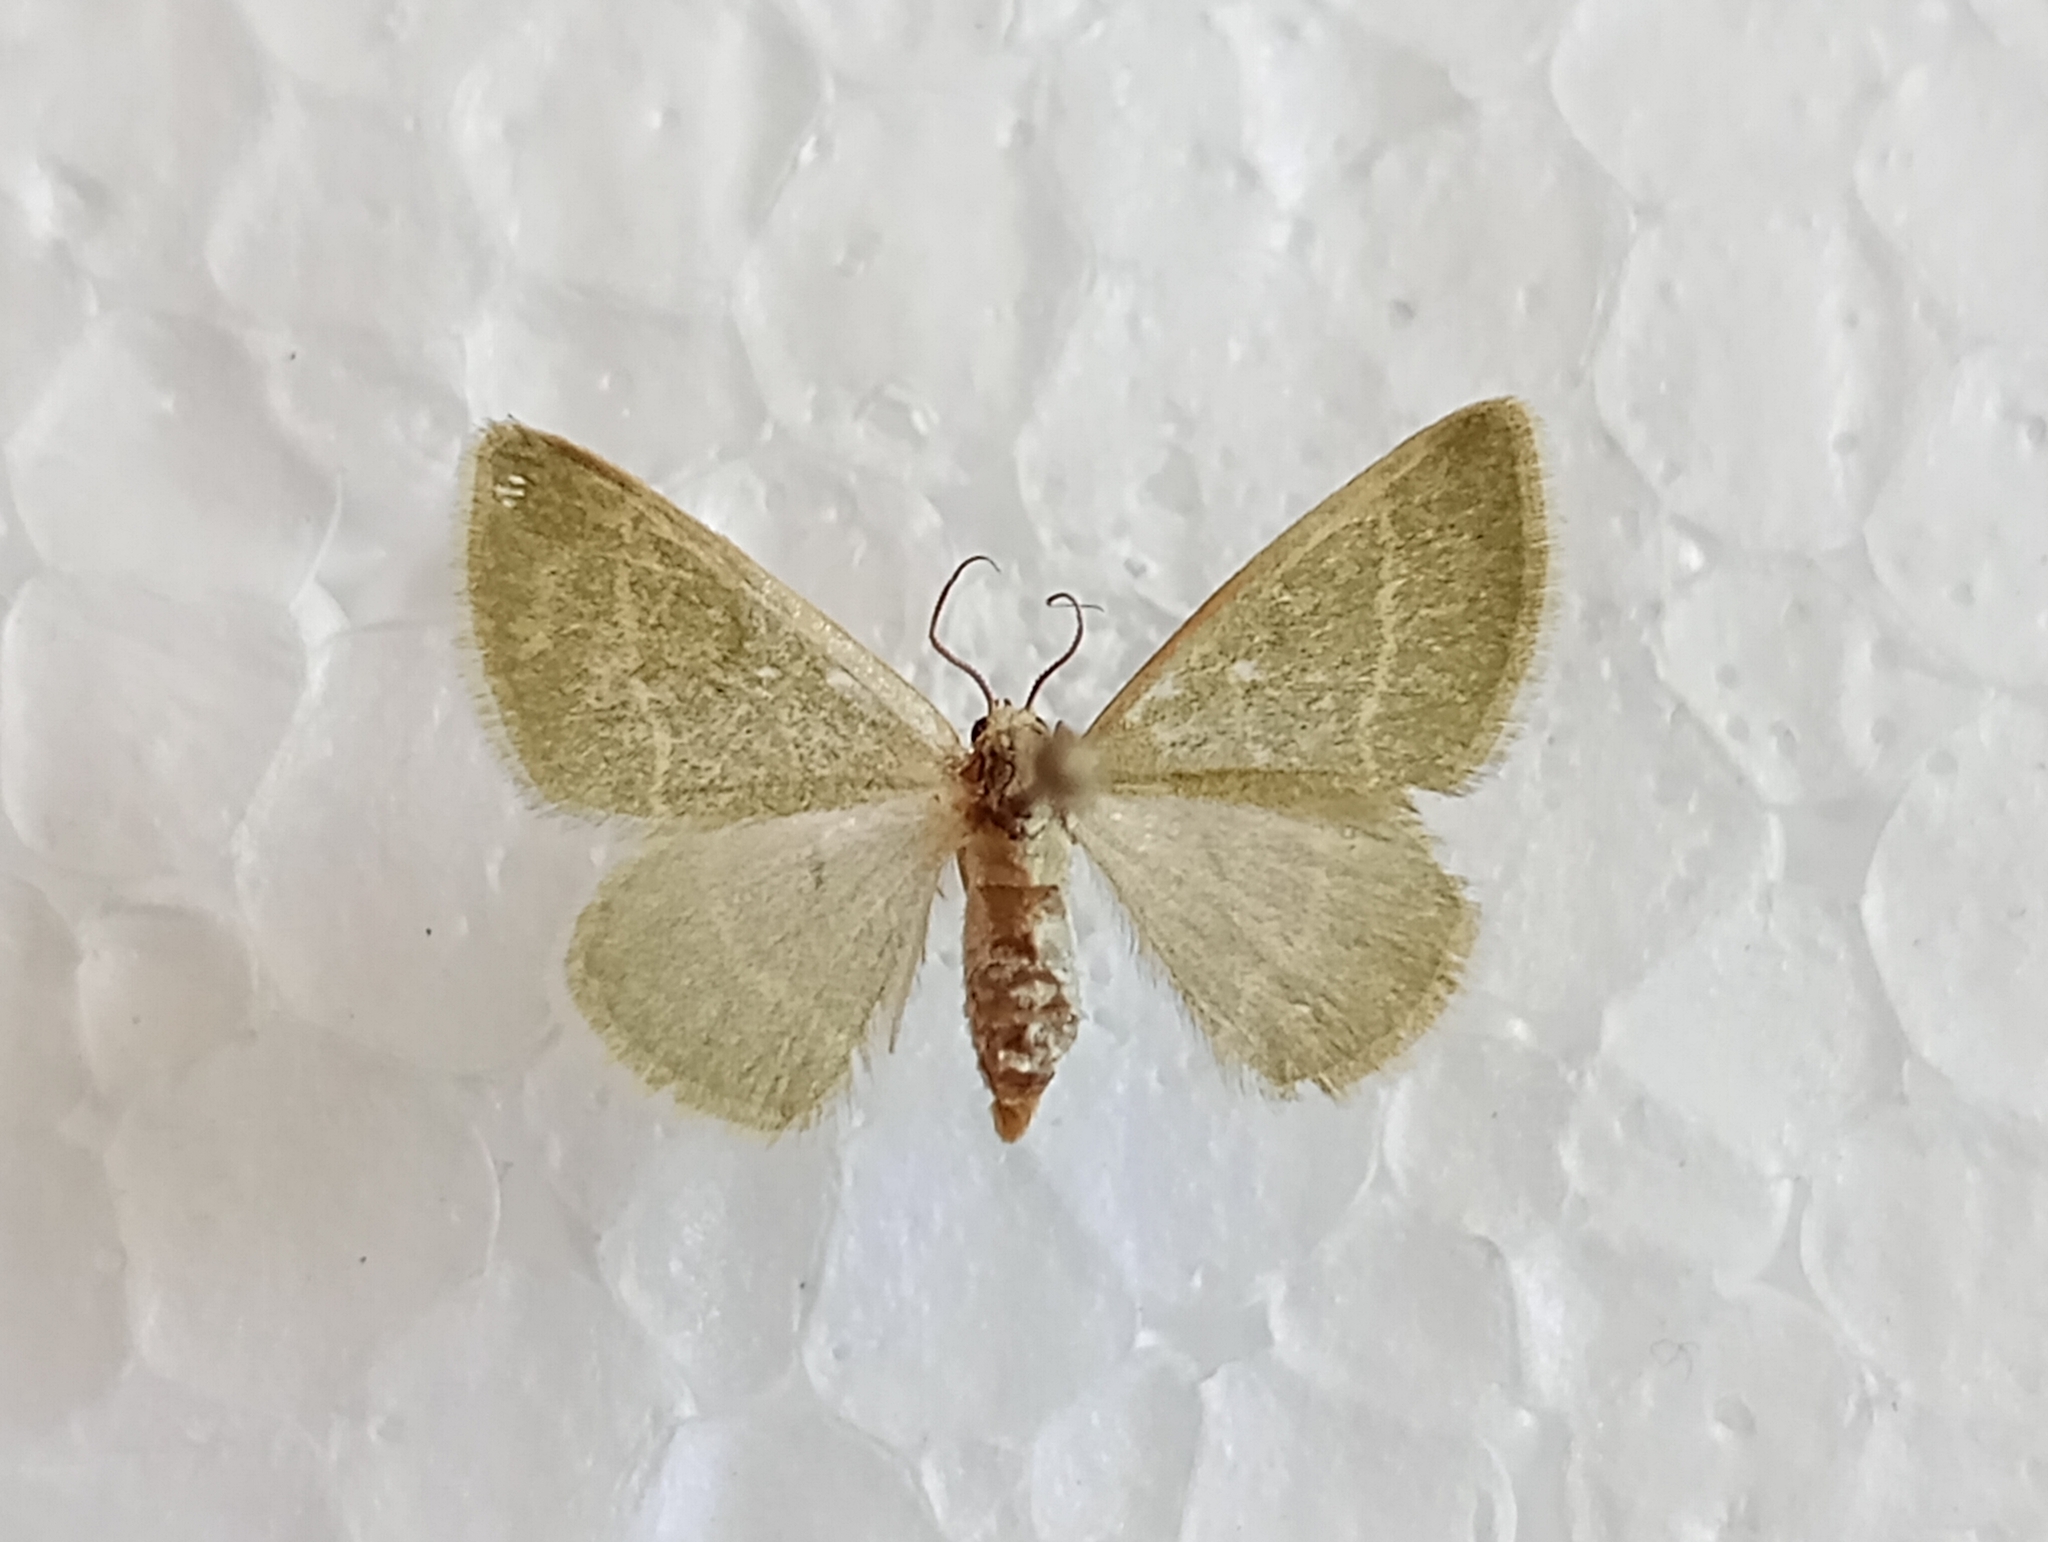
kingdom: Animalia
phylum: Arthropoda
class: Insecta
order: Lepidoptera
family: Geometridae
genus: Microloxia
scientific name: Microloxia herbaria
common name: Herb emerald
